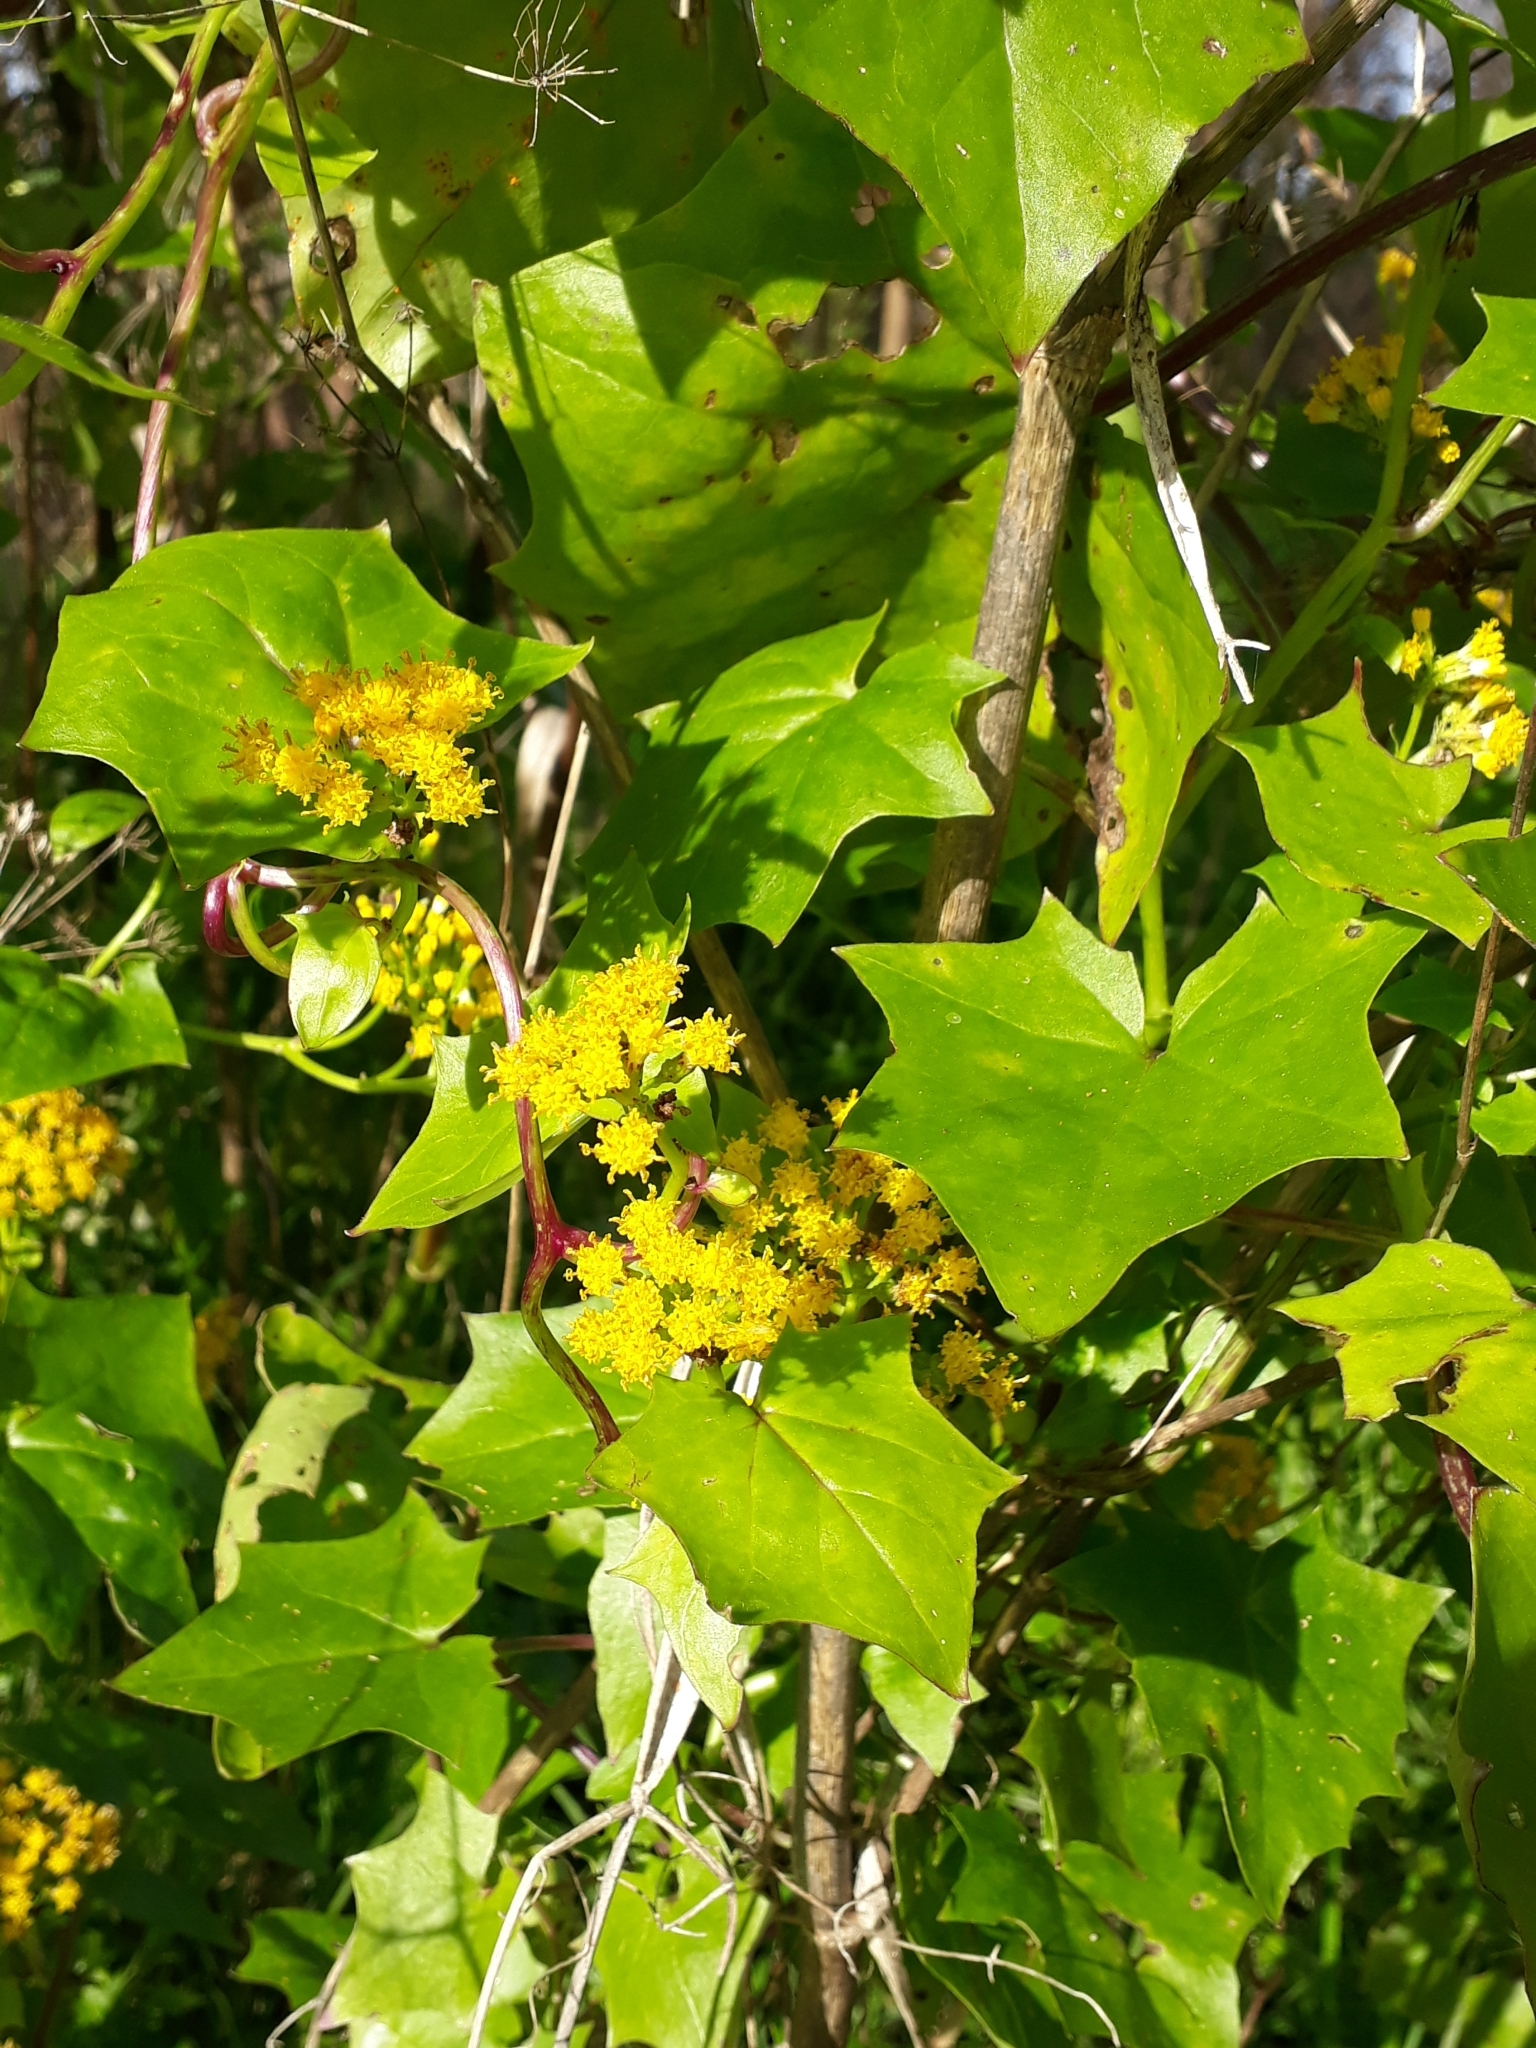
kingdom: Plantae
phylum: Tracheophyta
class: Magnoliopsida
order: Asterales
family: Asteraceae
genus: Delairea
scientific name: Delairea odorata
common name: Cape-ivy
